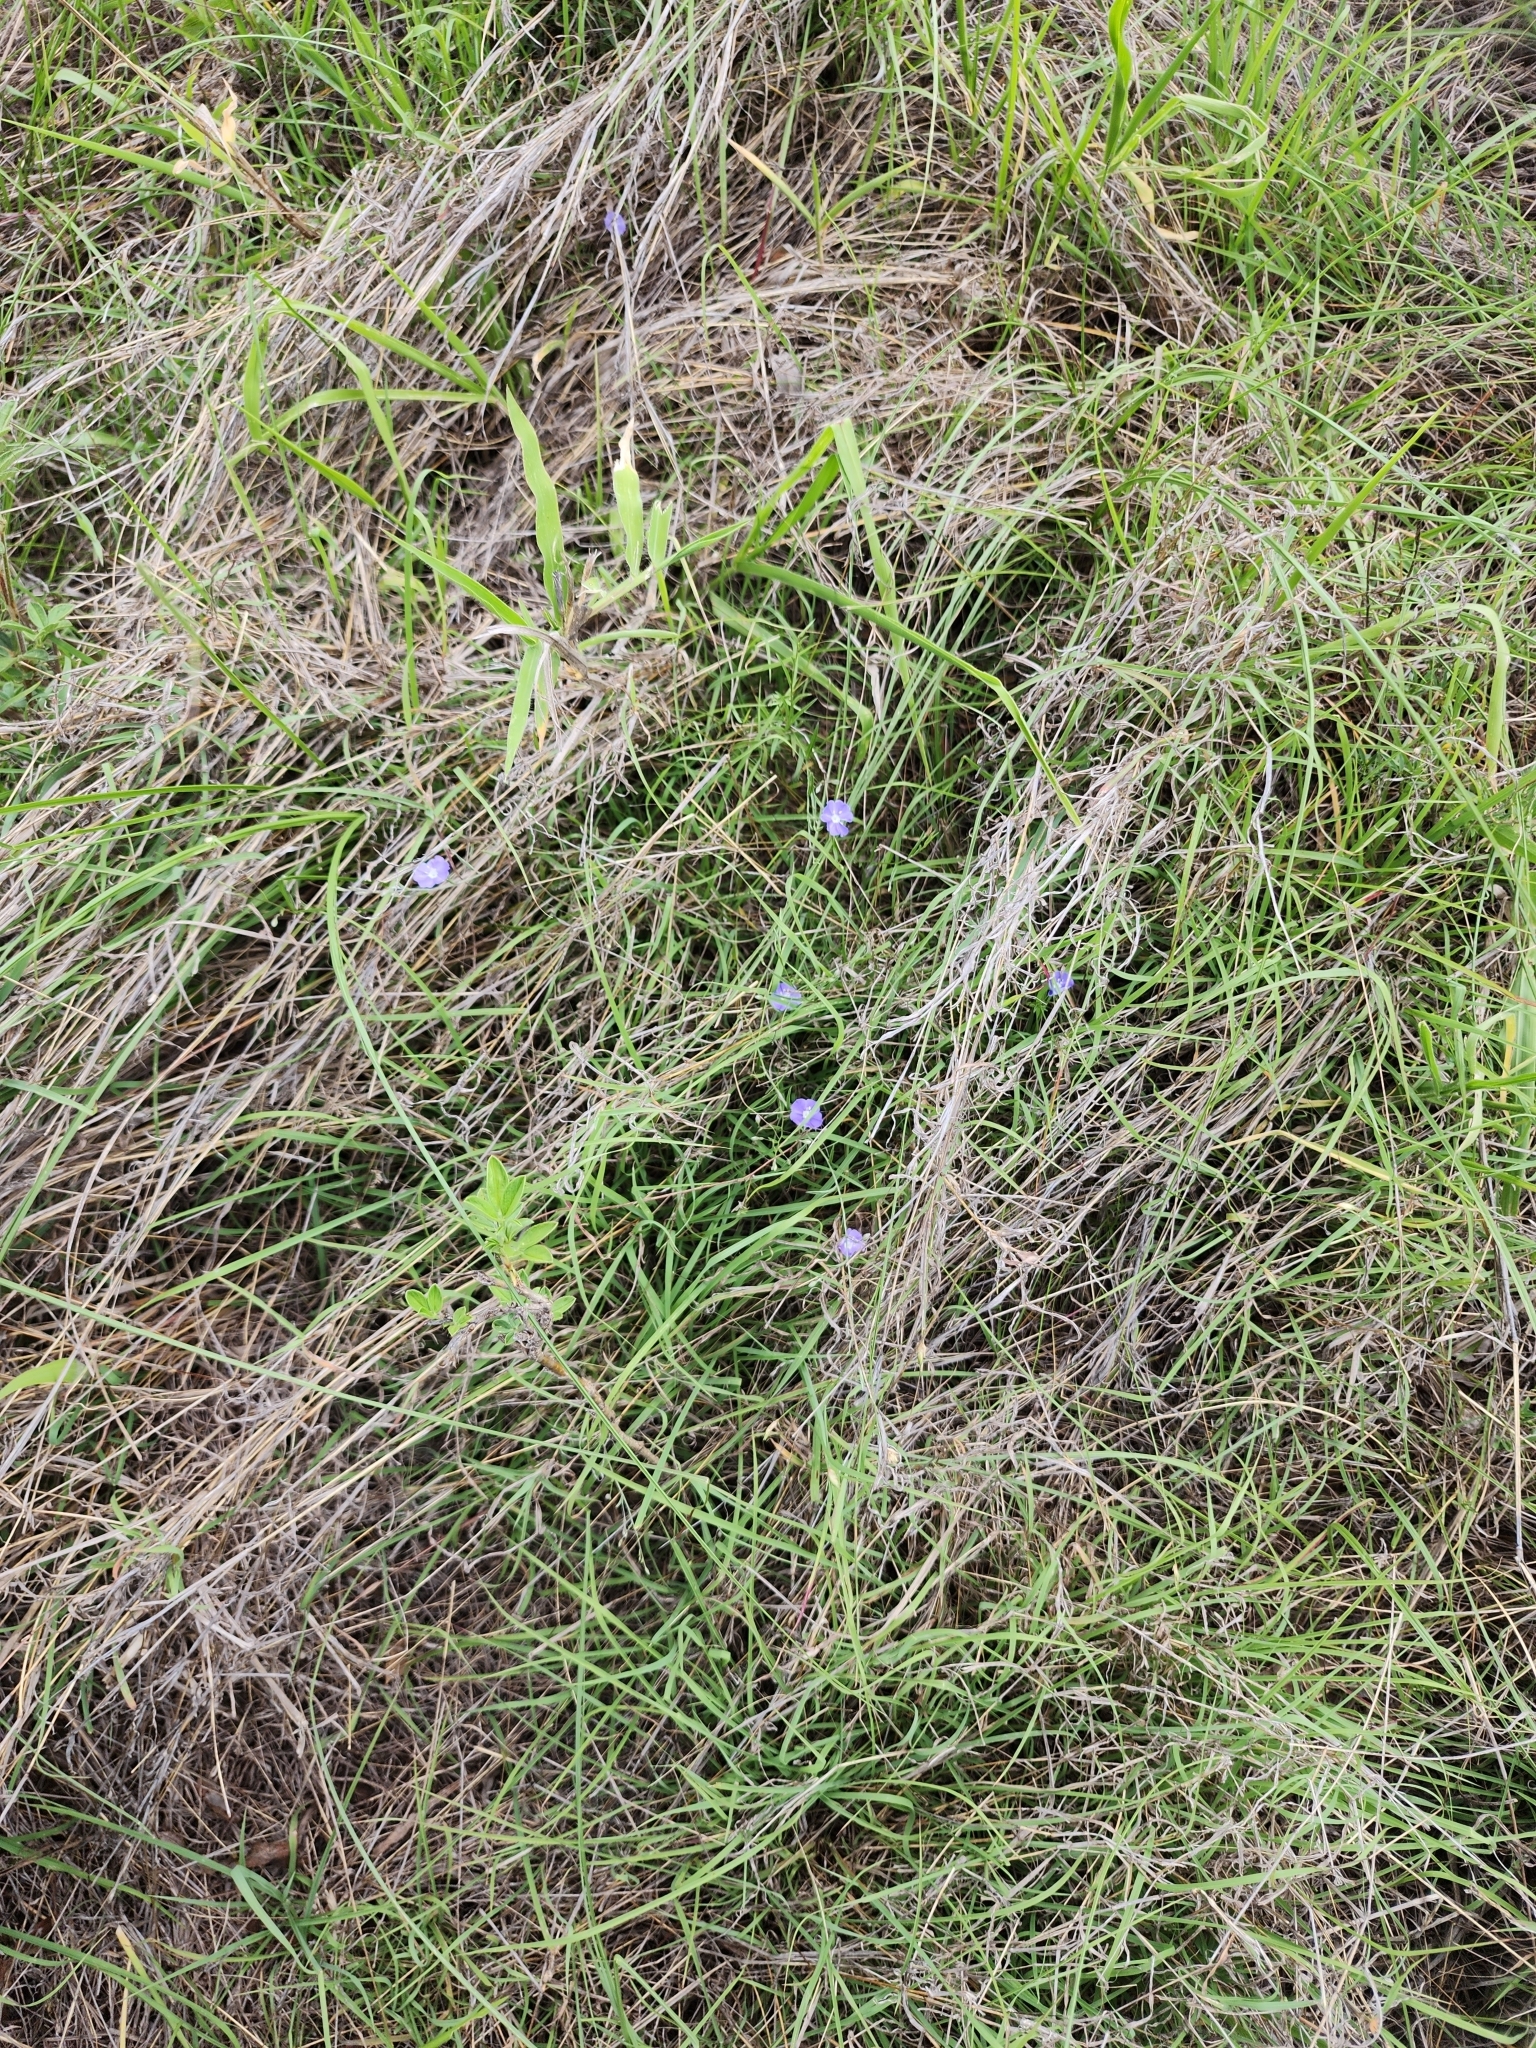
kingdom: Plantae
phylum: Tracheophyta
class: Magnoliopsida
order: Solanales
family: Convolvulaceae
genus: Evolvulus
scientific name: Evolvulus alsinoides
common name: Slender dwarf morning-glory
